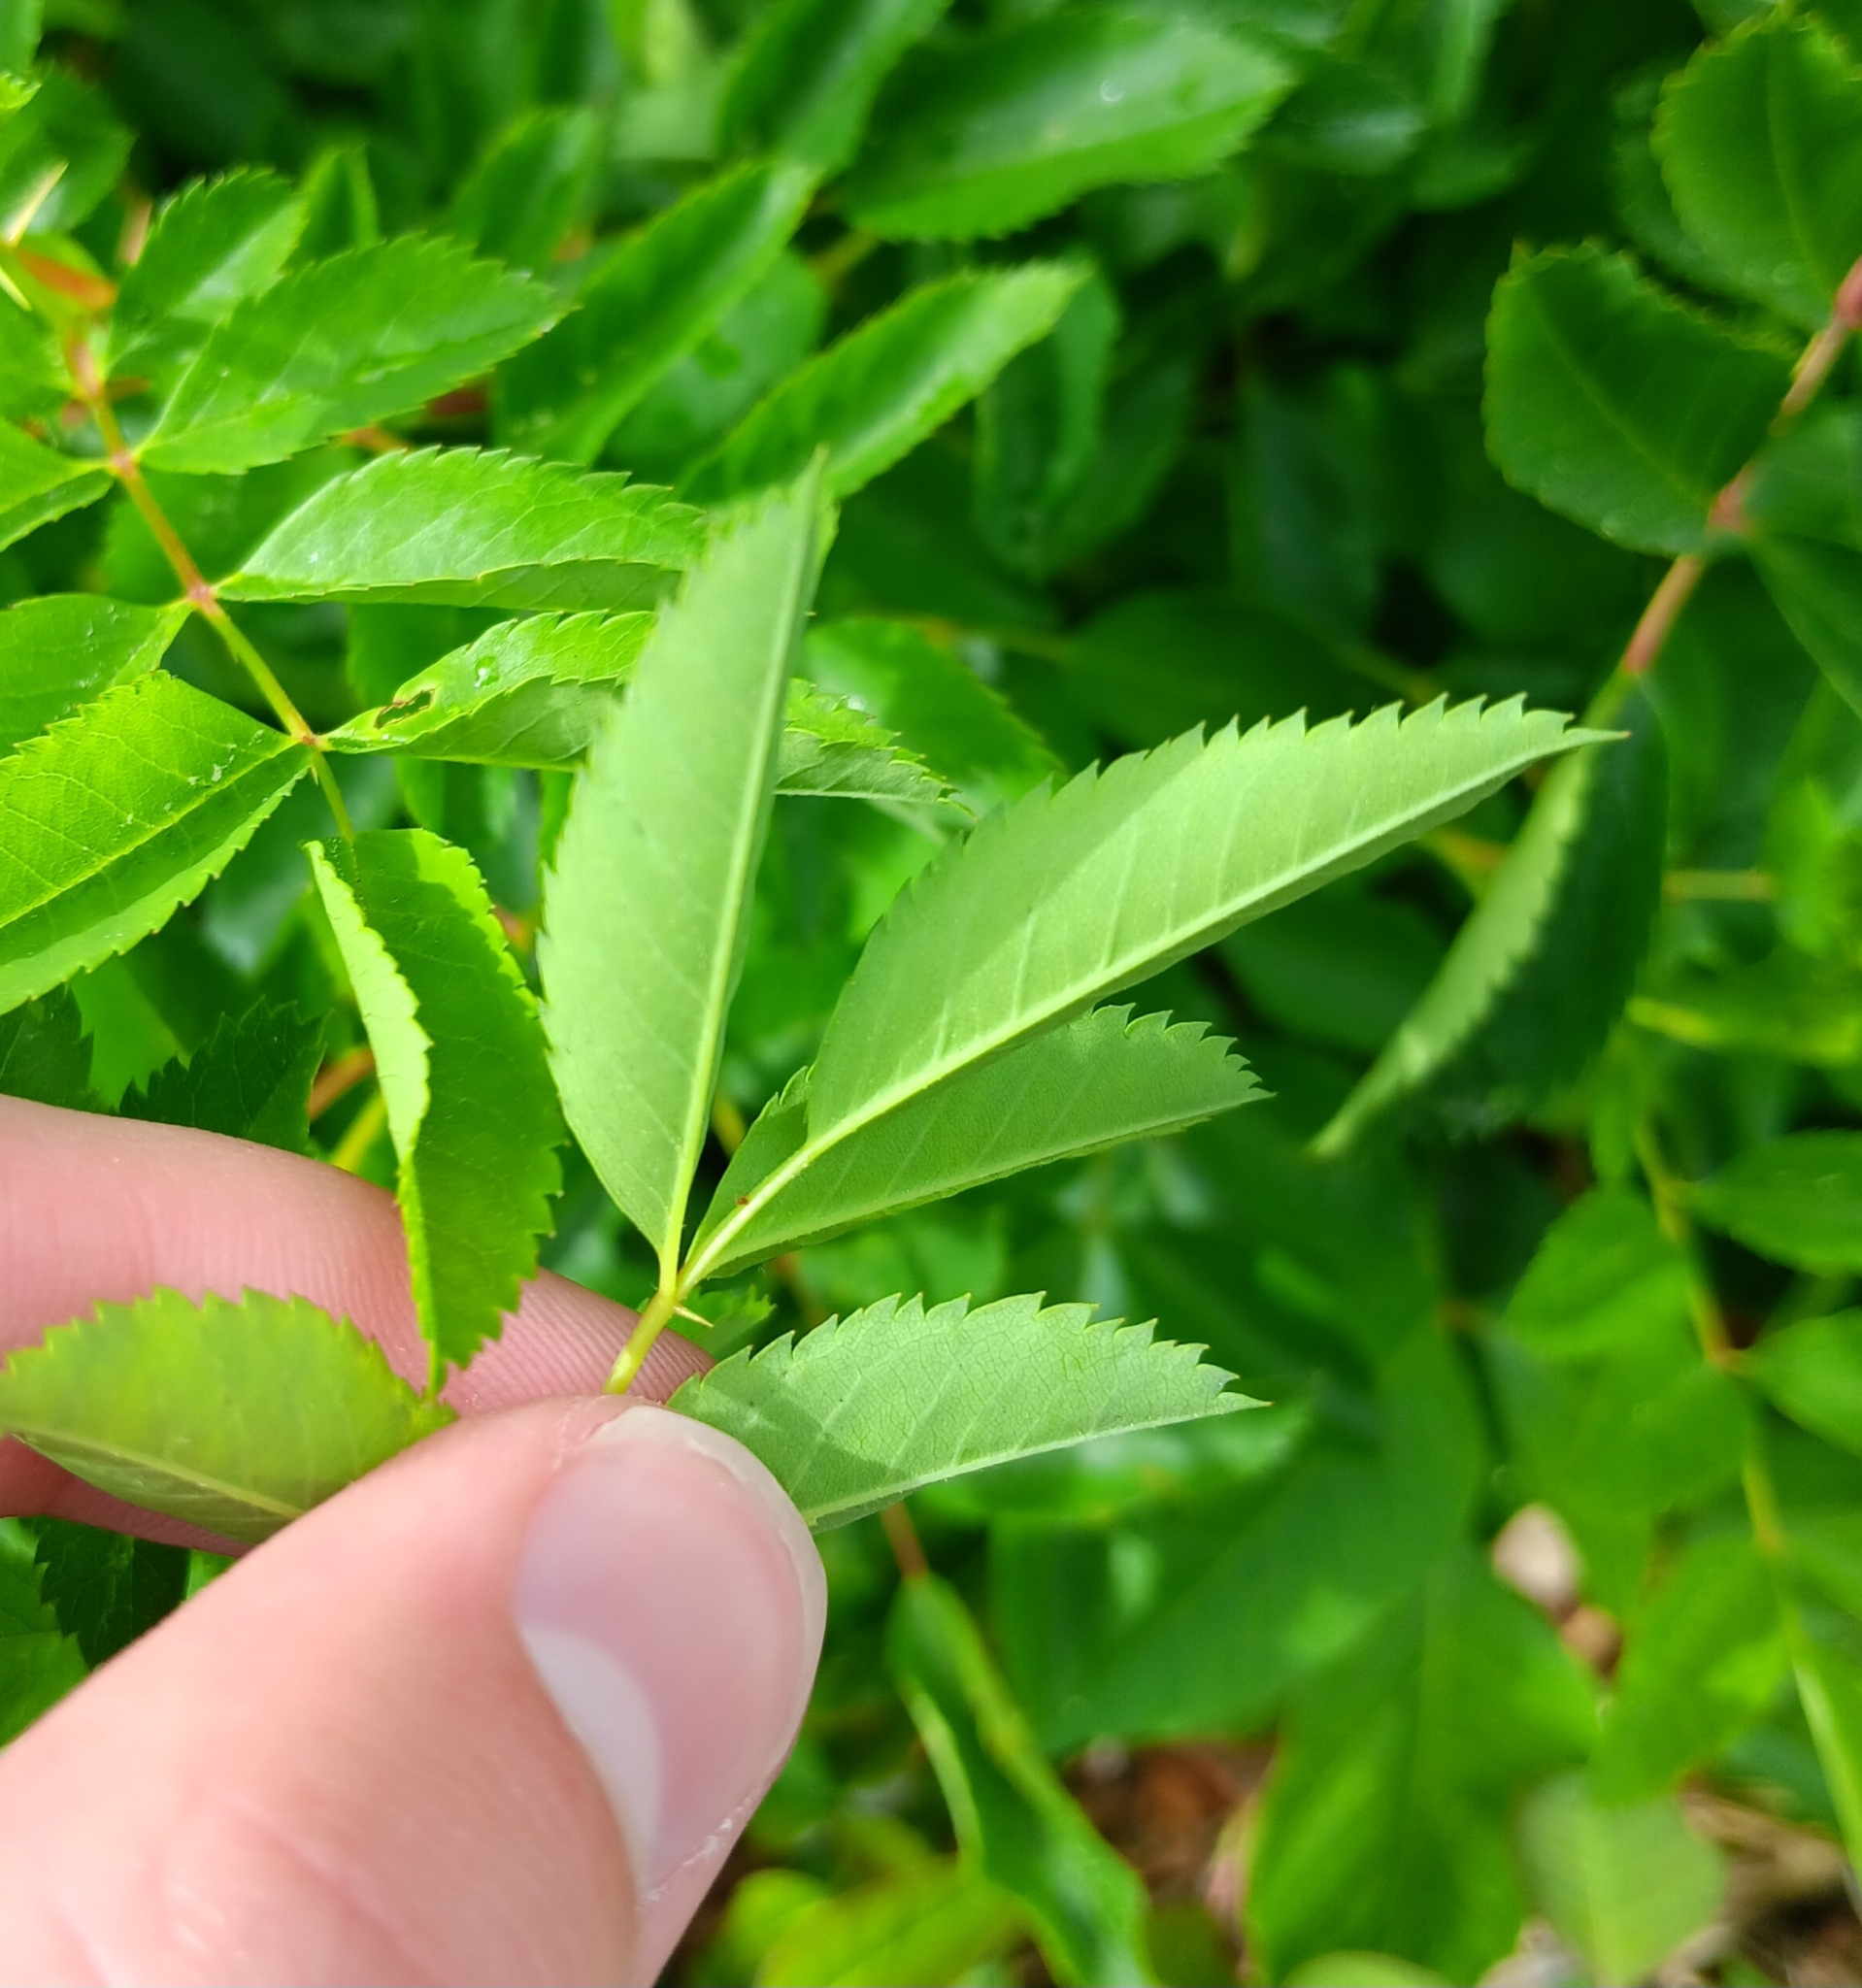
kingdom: Plantae
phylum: Tracheophyta
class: Magnoliopsida
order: Rosales
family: Rosaceae
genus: Rosa
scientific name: Rosa virginiana
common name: Virginian rose
